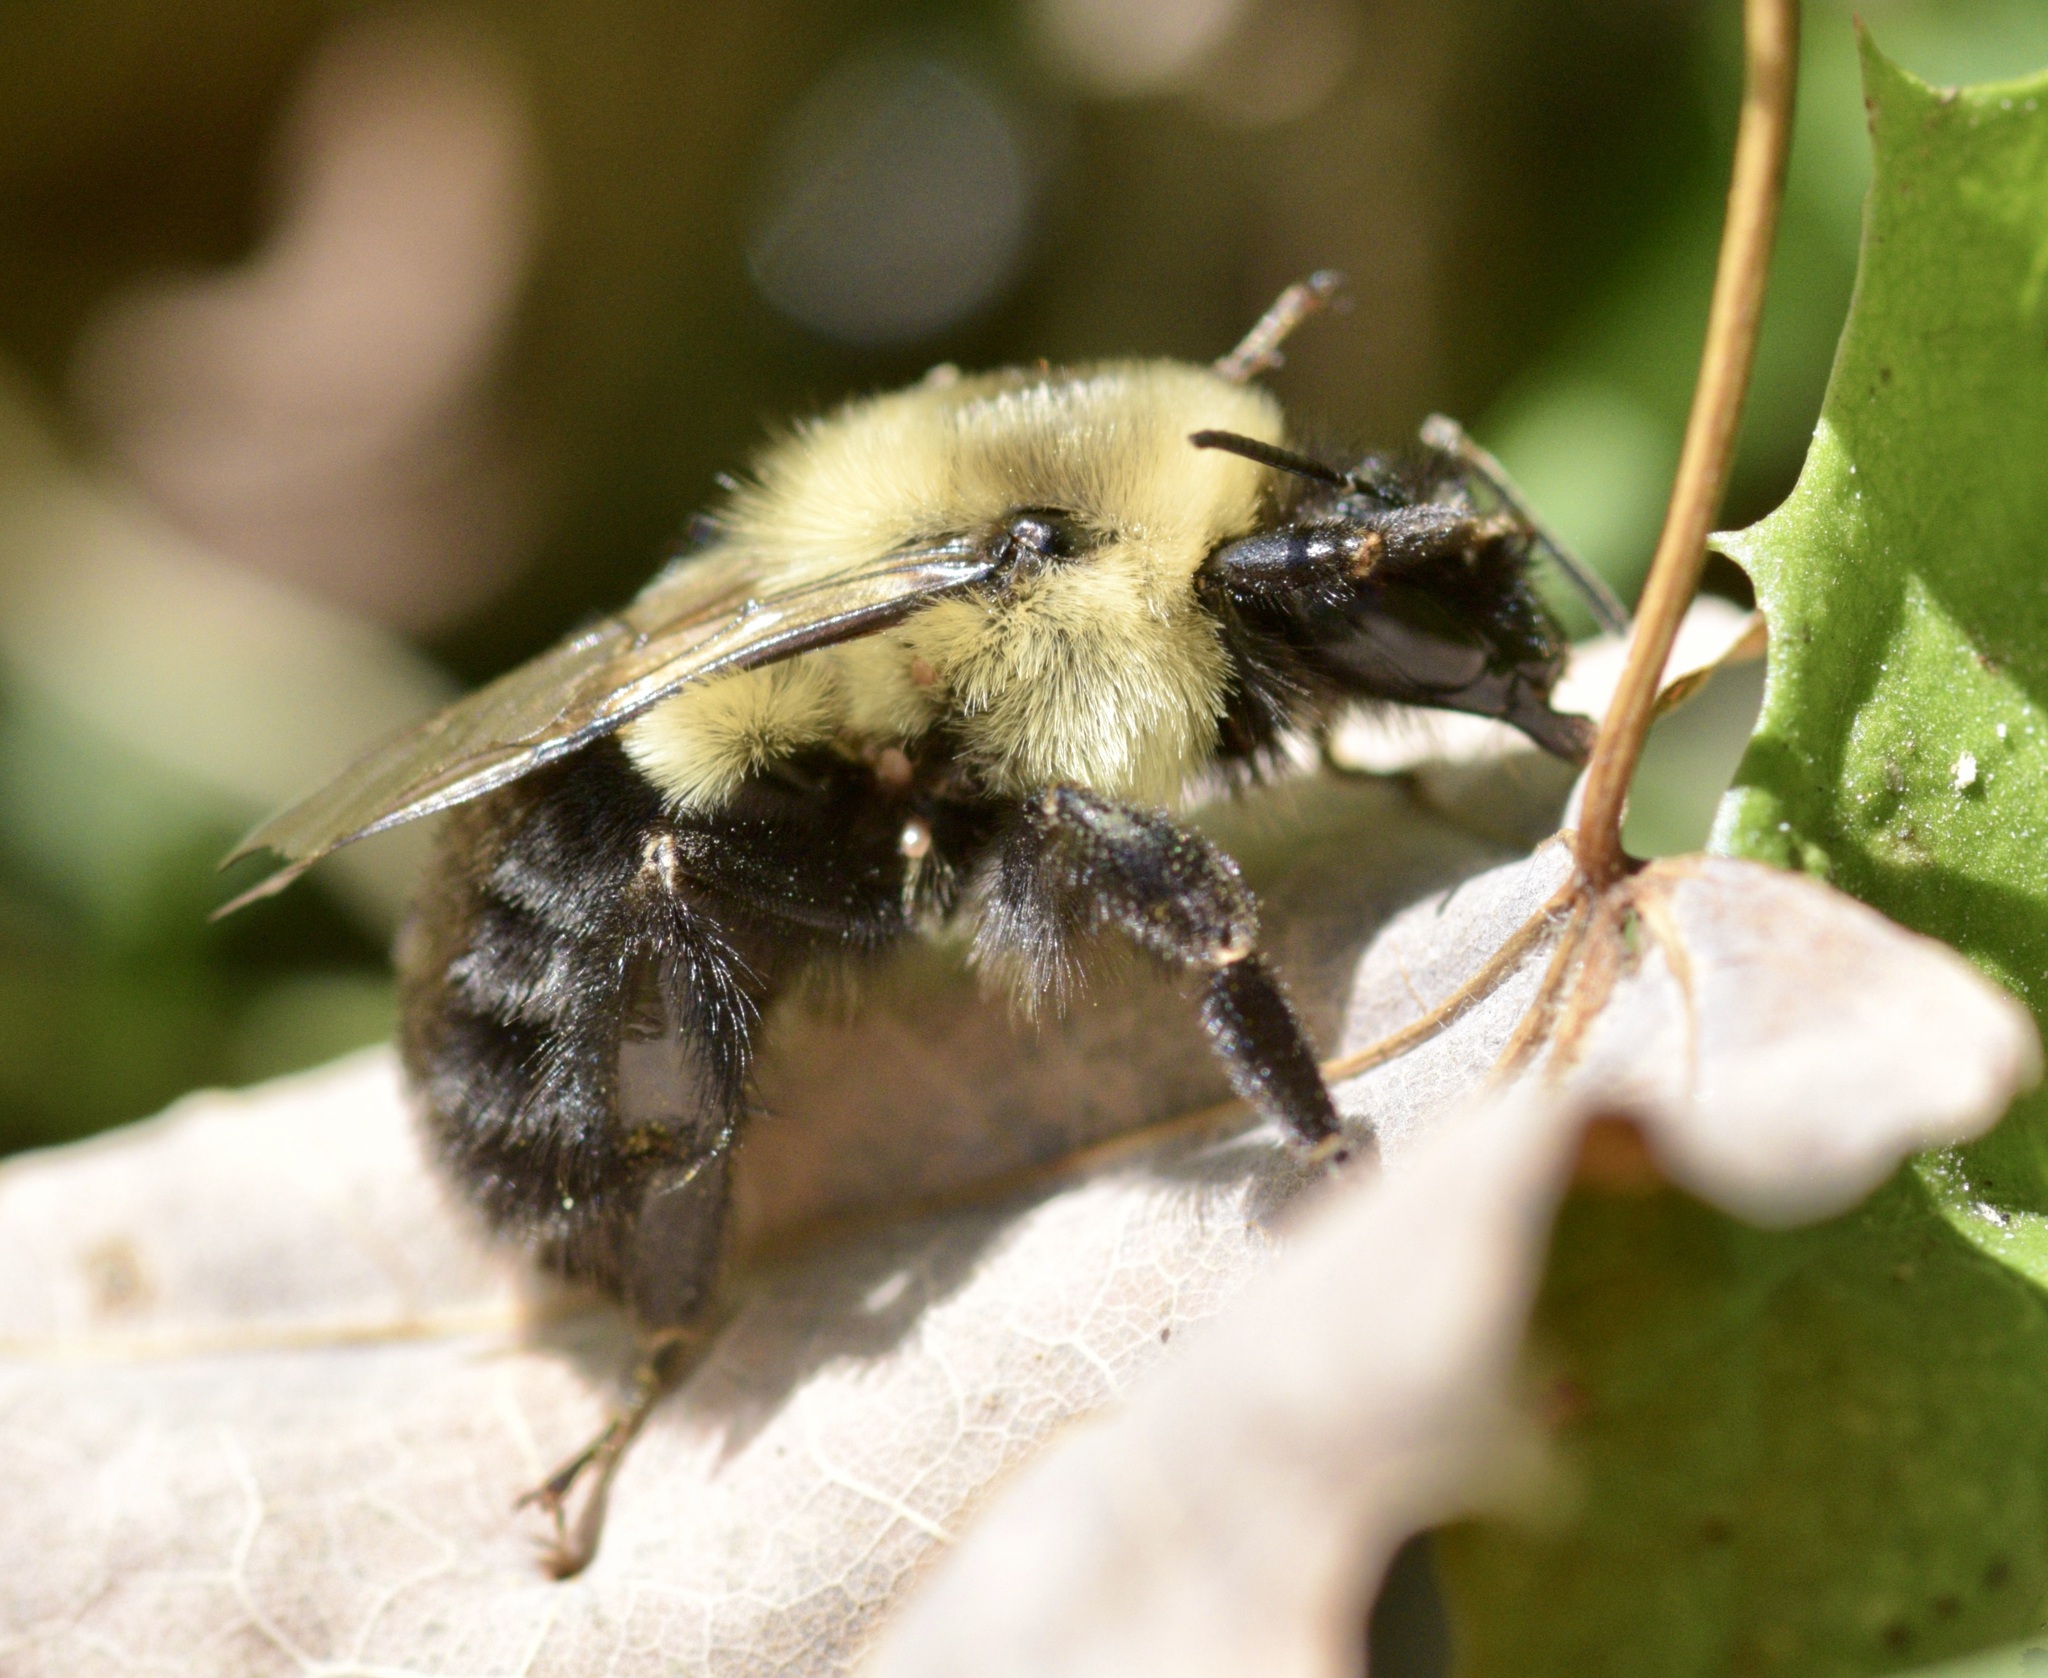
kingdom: Animalia
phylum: Arthropoda
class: Insecta
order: Hymenoptera
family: Apidae
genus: Bombus
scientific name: Bombus impatiens
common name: Common eastern bumble bee
